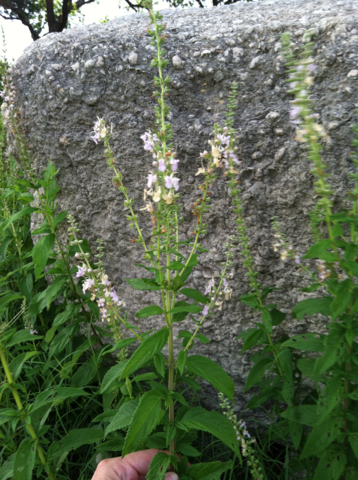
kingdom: Plantae
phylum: Tracheophyta
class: Magnoliopsida
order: Lamiales
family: Lamiaceae
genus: Teucrium
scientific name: Teucrium canadense
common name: American germander
